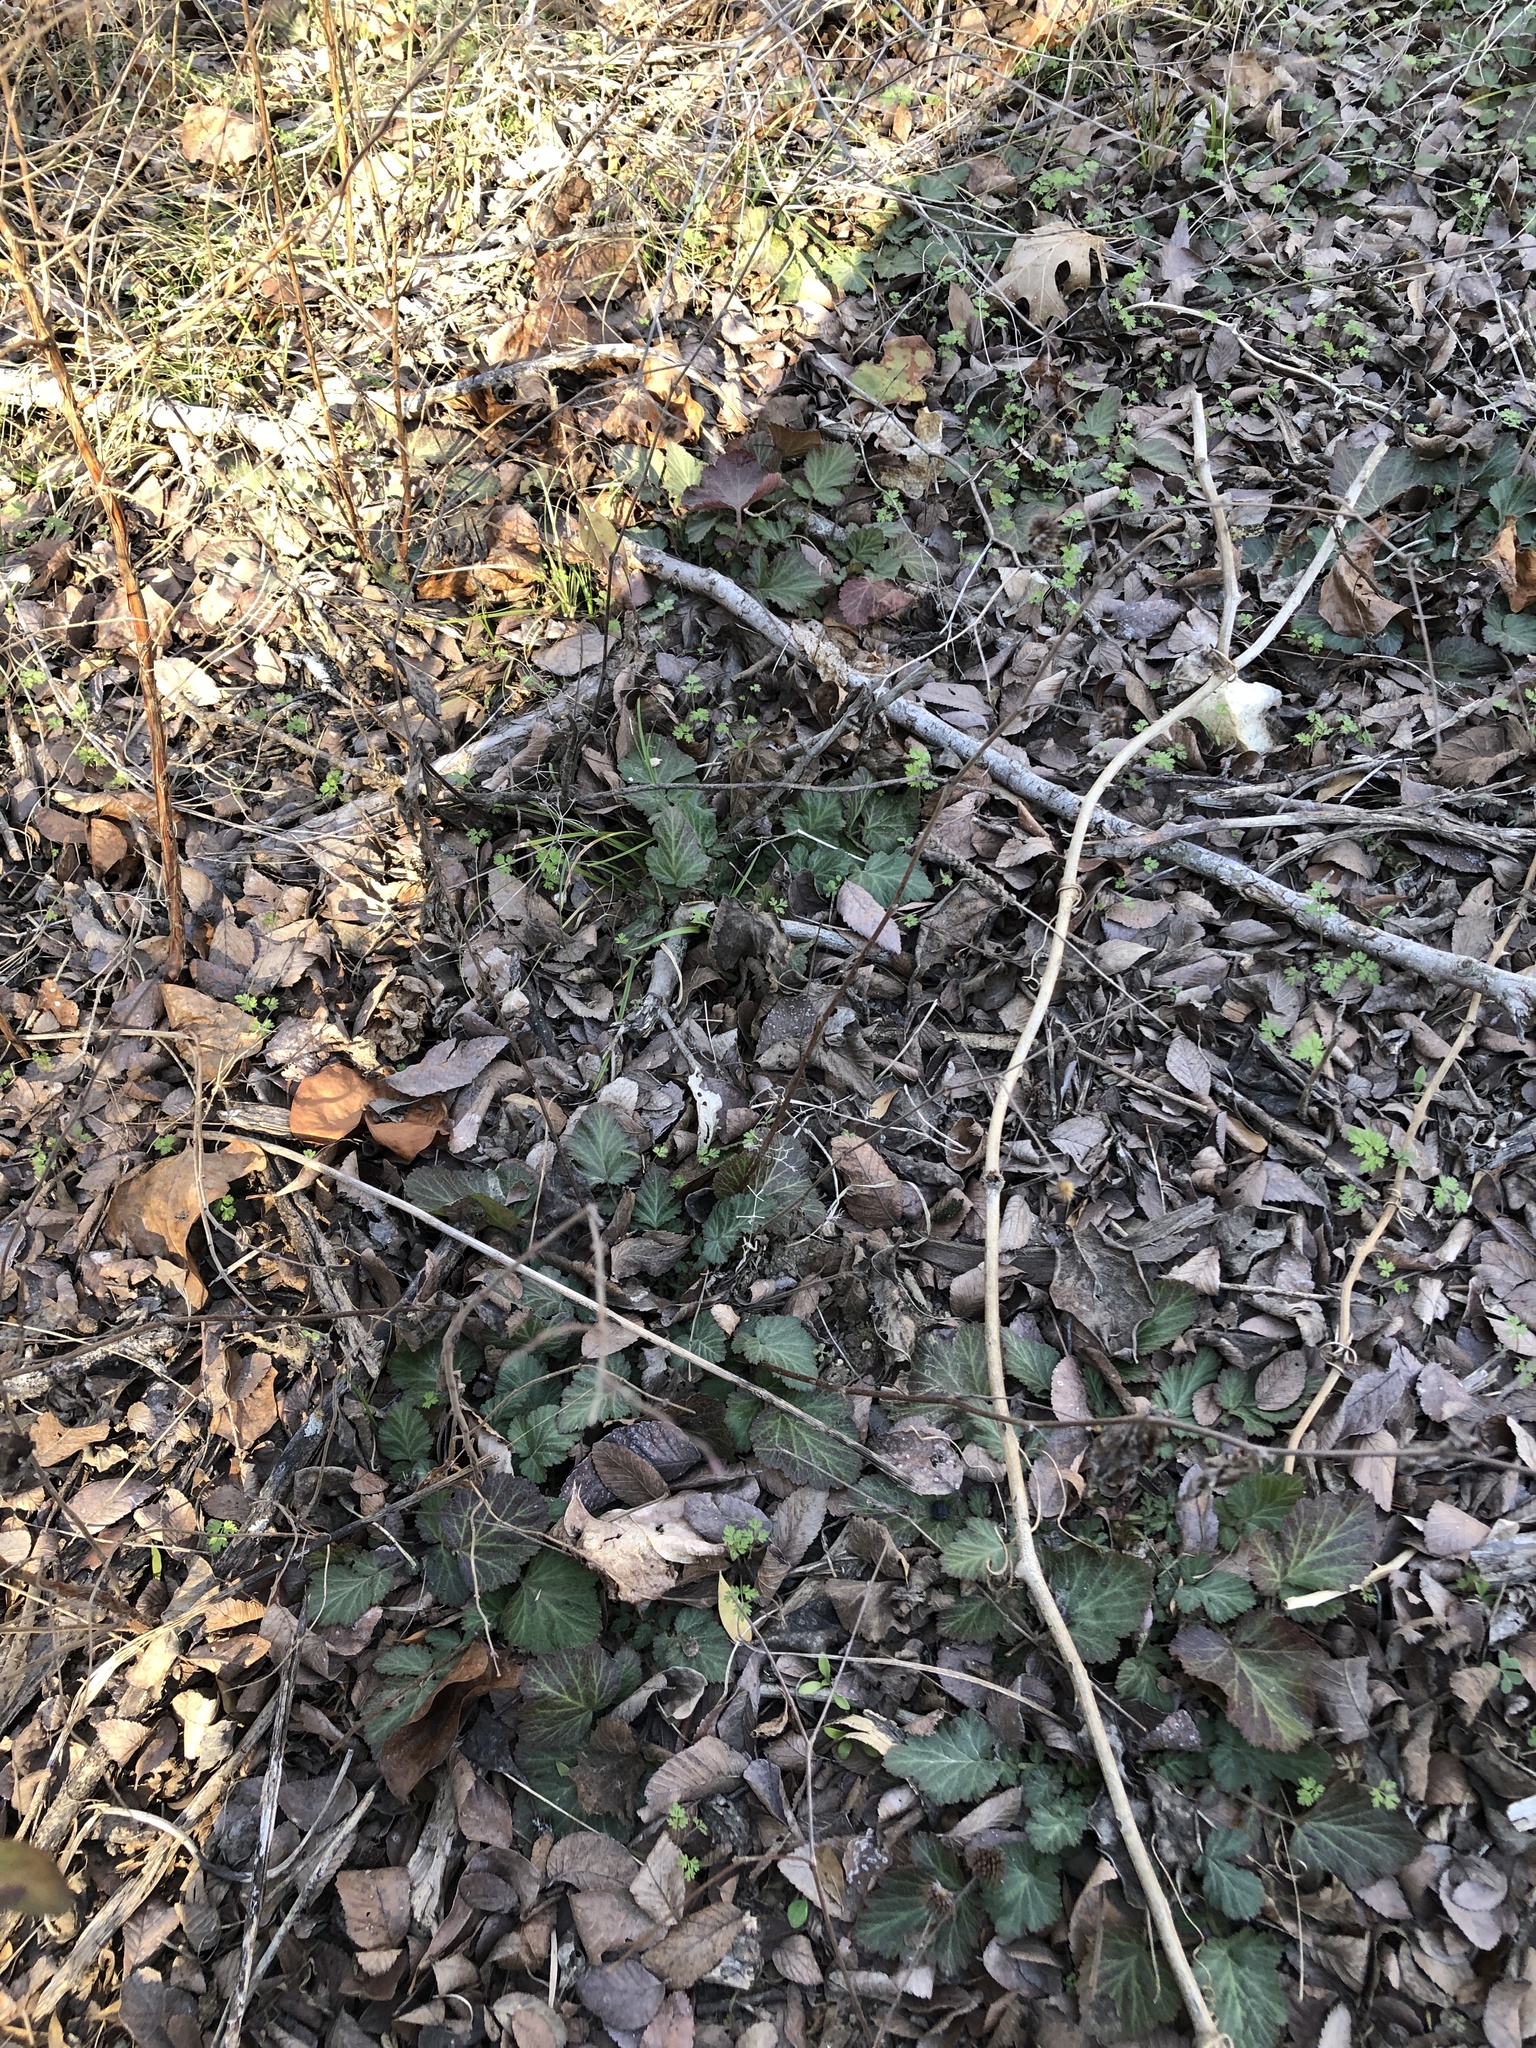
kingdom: Plantae
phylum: Tracheophyta
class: Magnoliopsida
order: Rosales
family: Rosaceae
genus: Geum
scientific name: Geum canadense
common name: White avens
